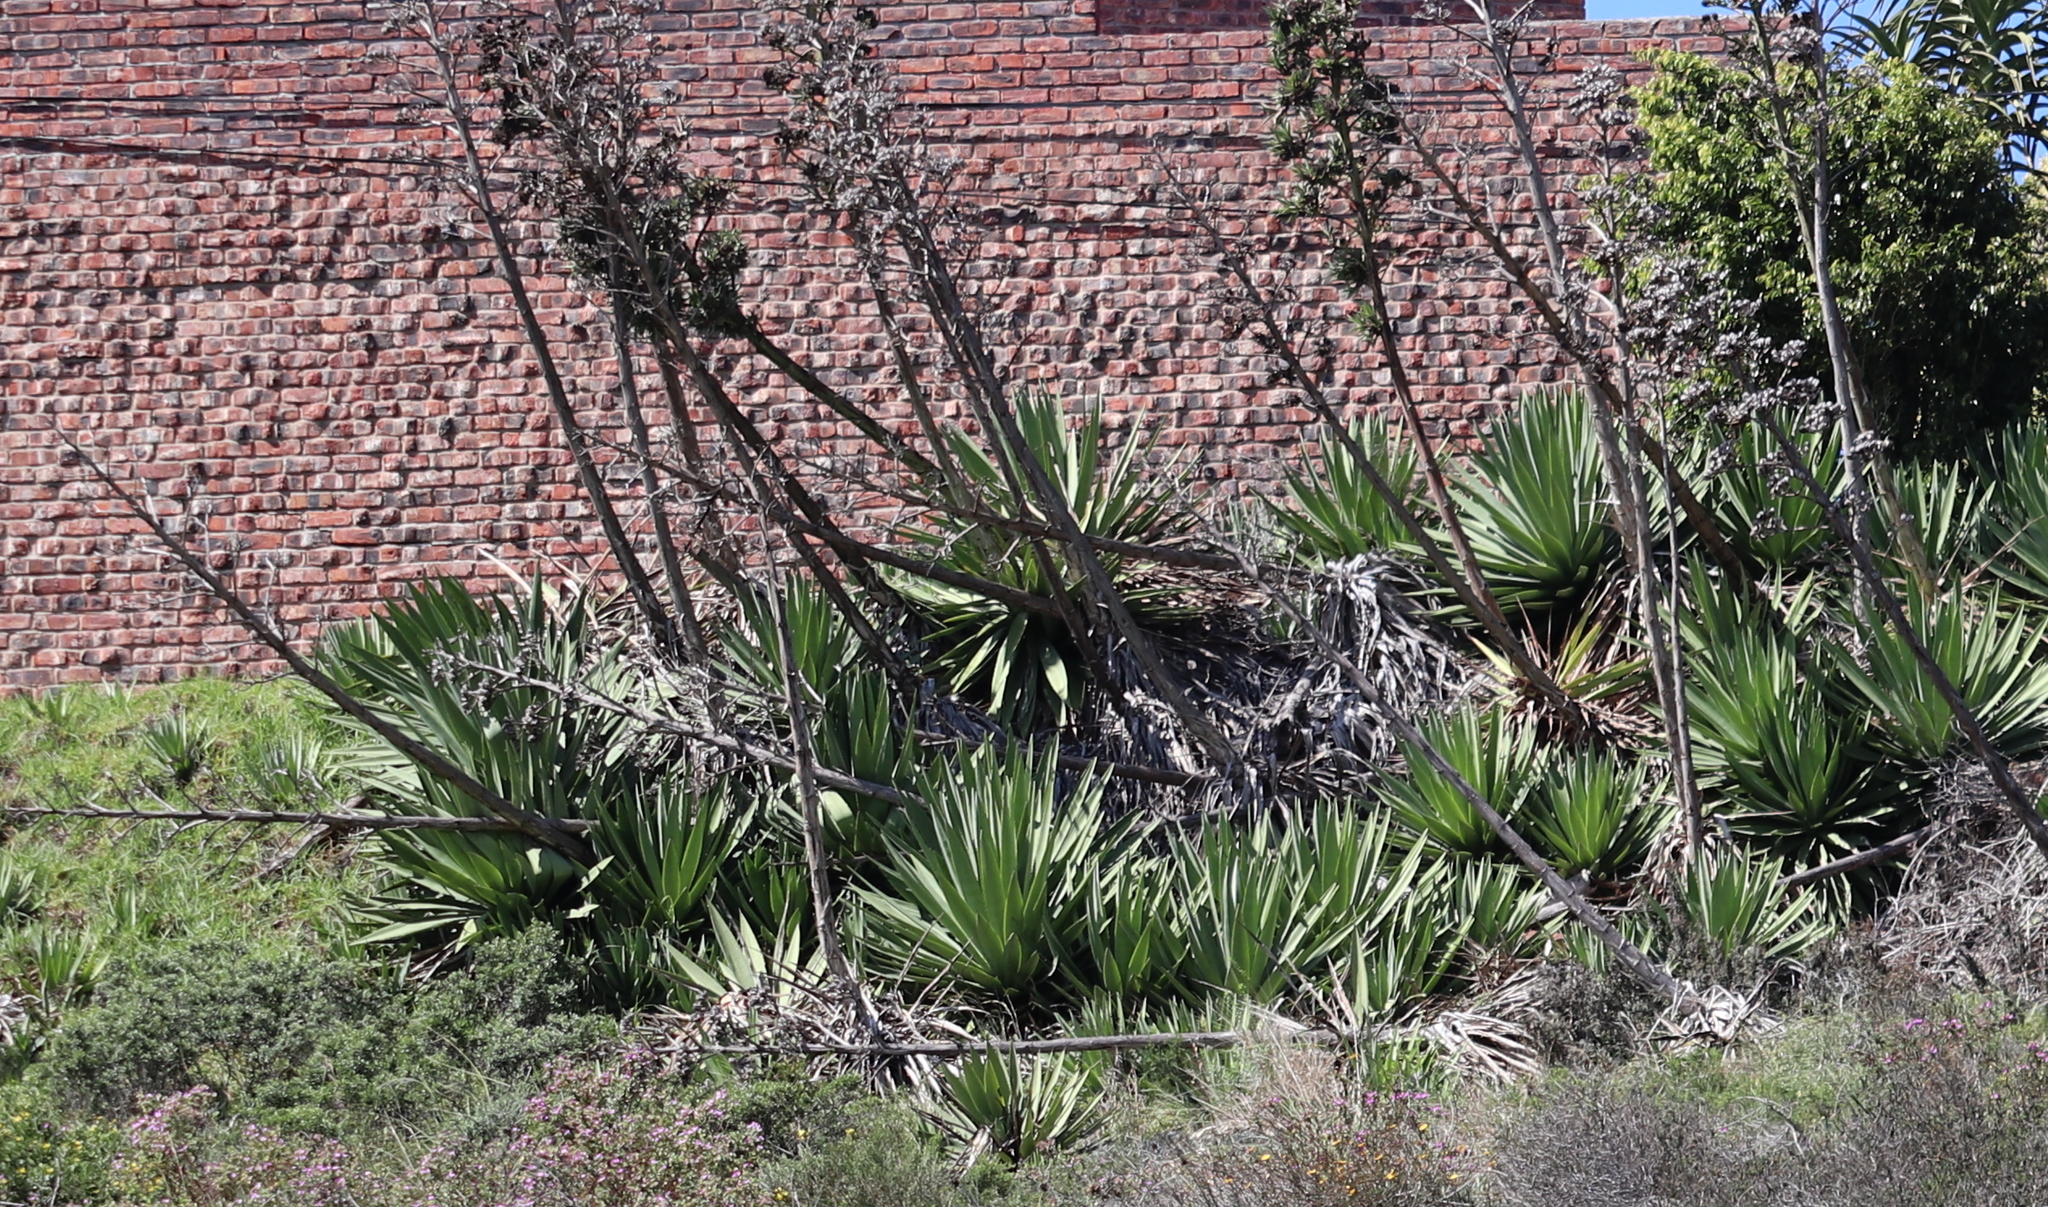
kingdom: Plantae
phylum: Tracheophyta
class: Liliopsida
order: Asparagales
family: Asparagaceae
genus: Agave
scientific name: Agave sisalana
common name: Sisal hemp
